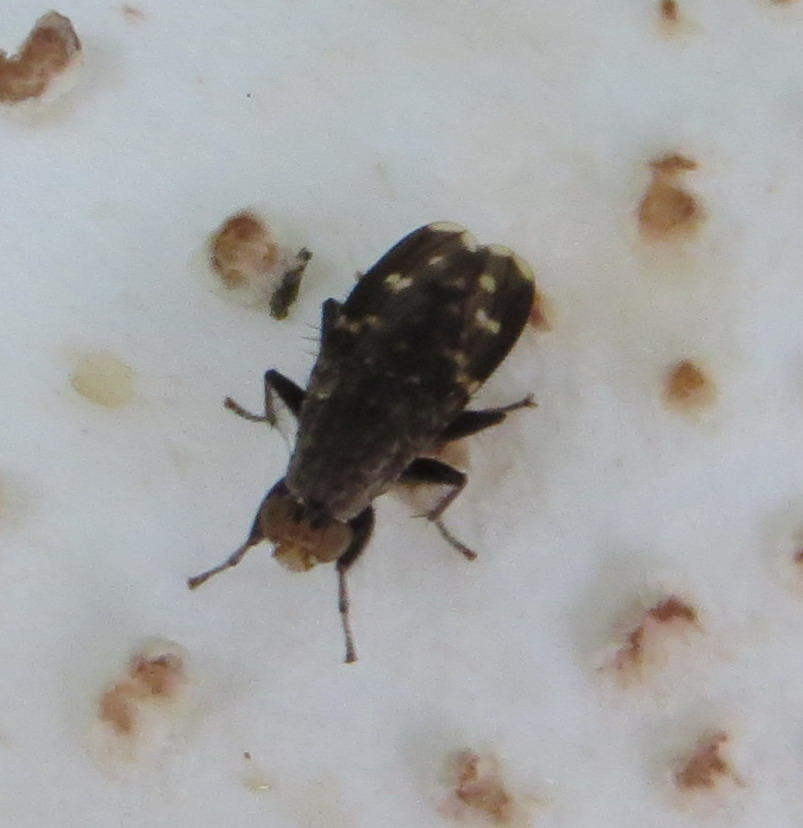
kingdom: Animalia
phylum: Arthropoda
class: Insecta
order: Diptera
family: Heleomyzidae
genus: Suillia
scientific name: Suillia picta
